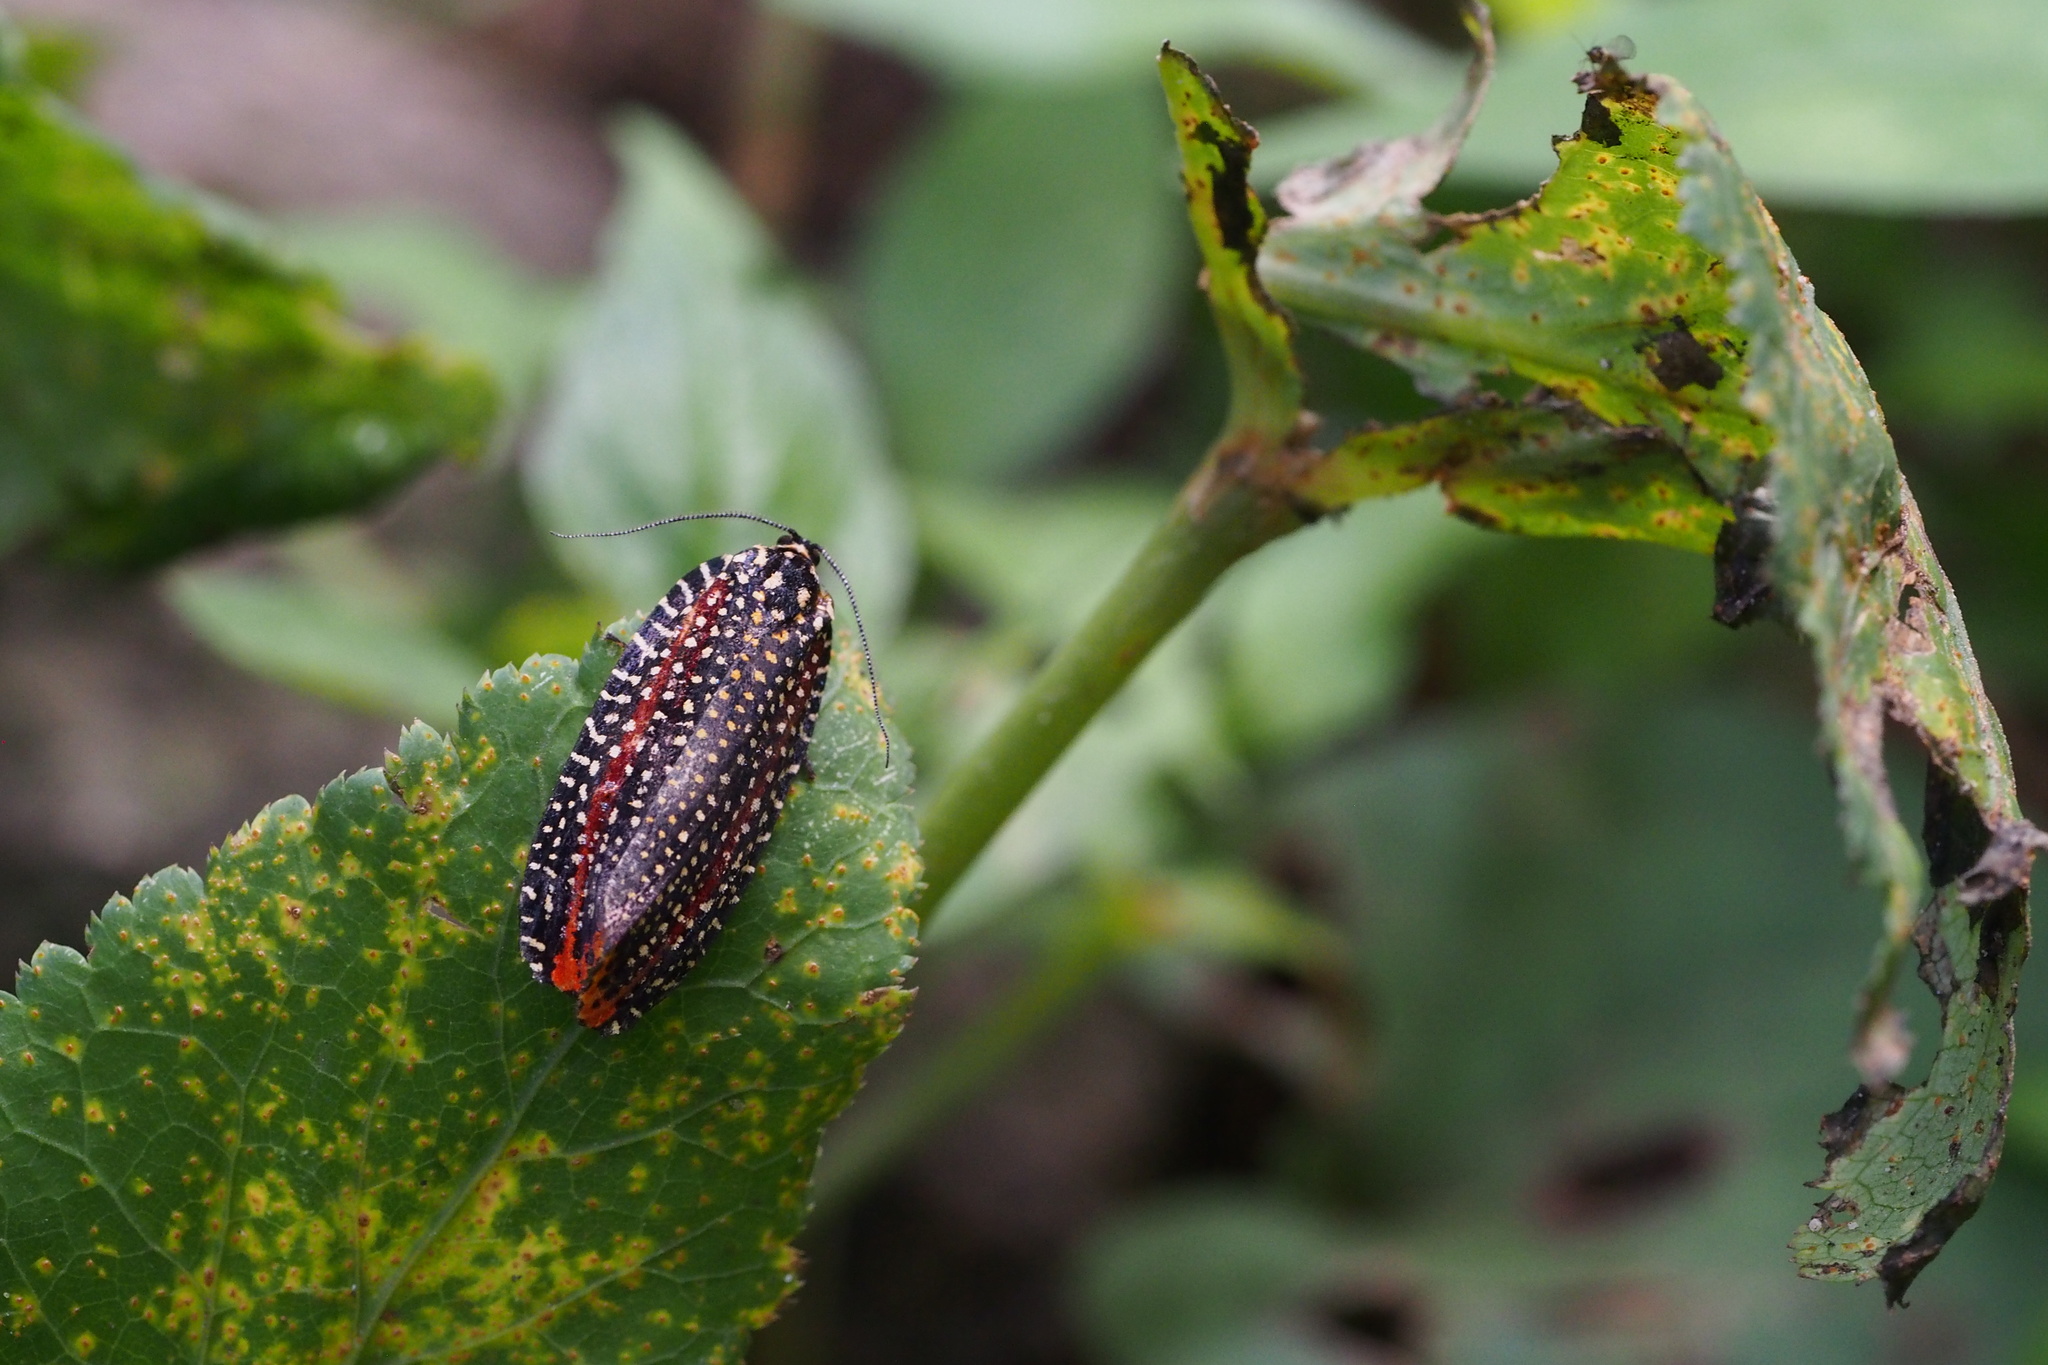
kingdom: Animalia
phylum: Arthropoda
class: Insecta
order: Lepidoptera
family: Tortricidae
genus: Cerace
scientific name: Cerace xanthocosma
